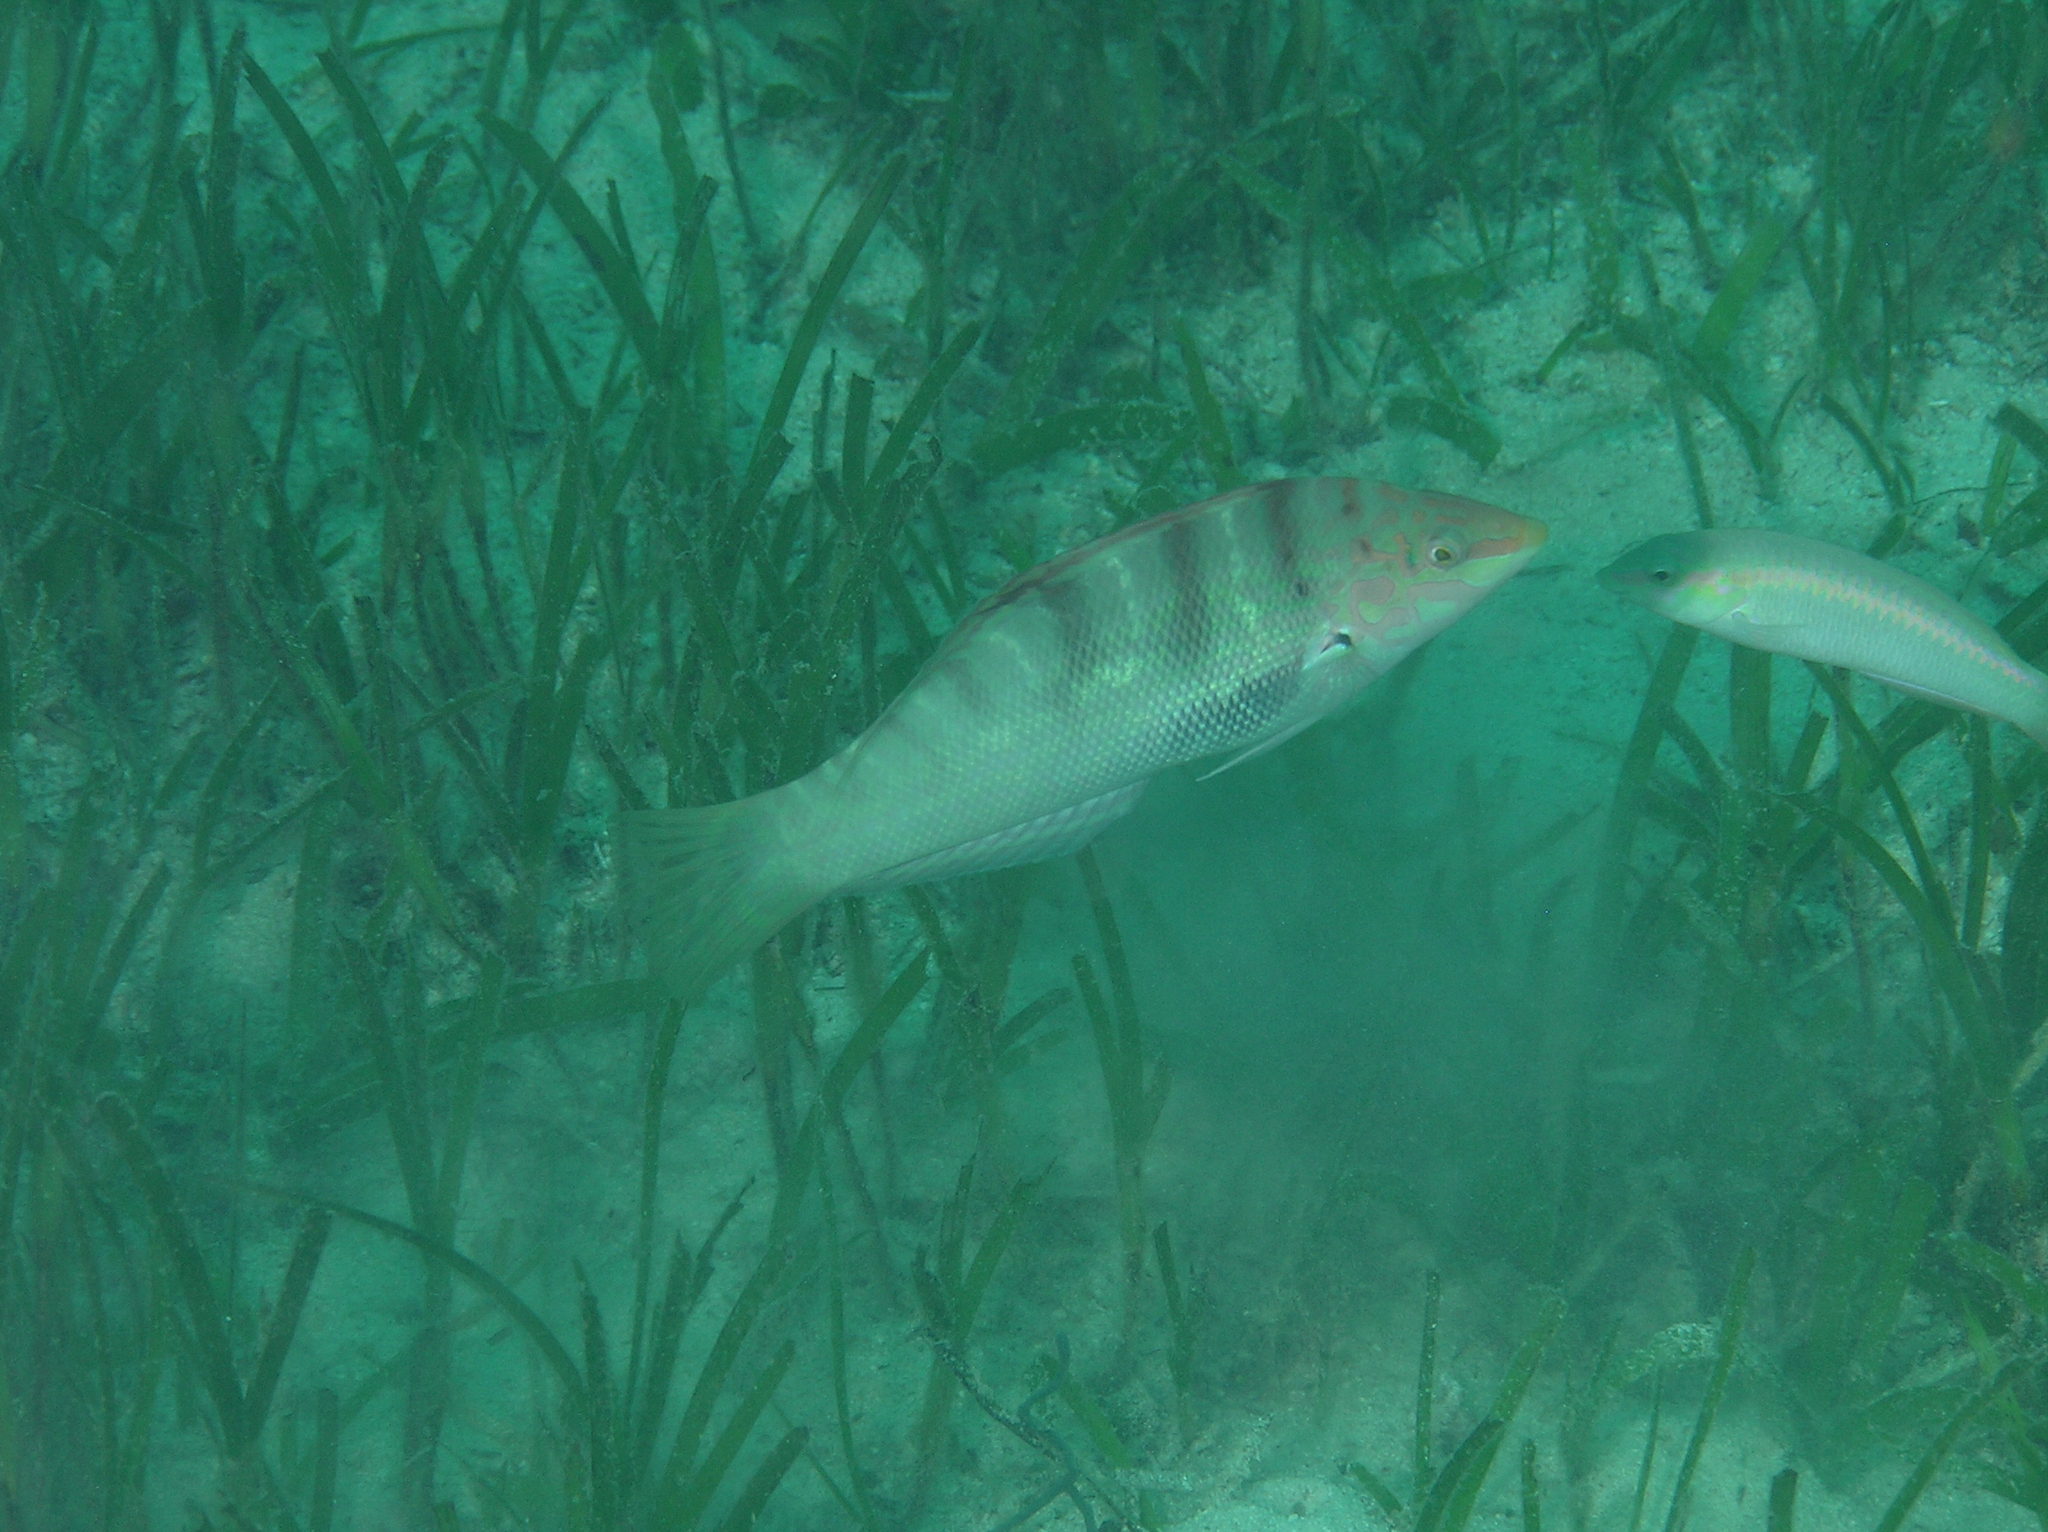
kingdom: Animalia
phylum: Chordata
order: Perciformes
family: Labridae
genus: Coris
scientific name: Coris batuensis
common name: Batu coris
